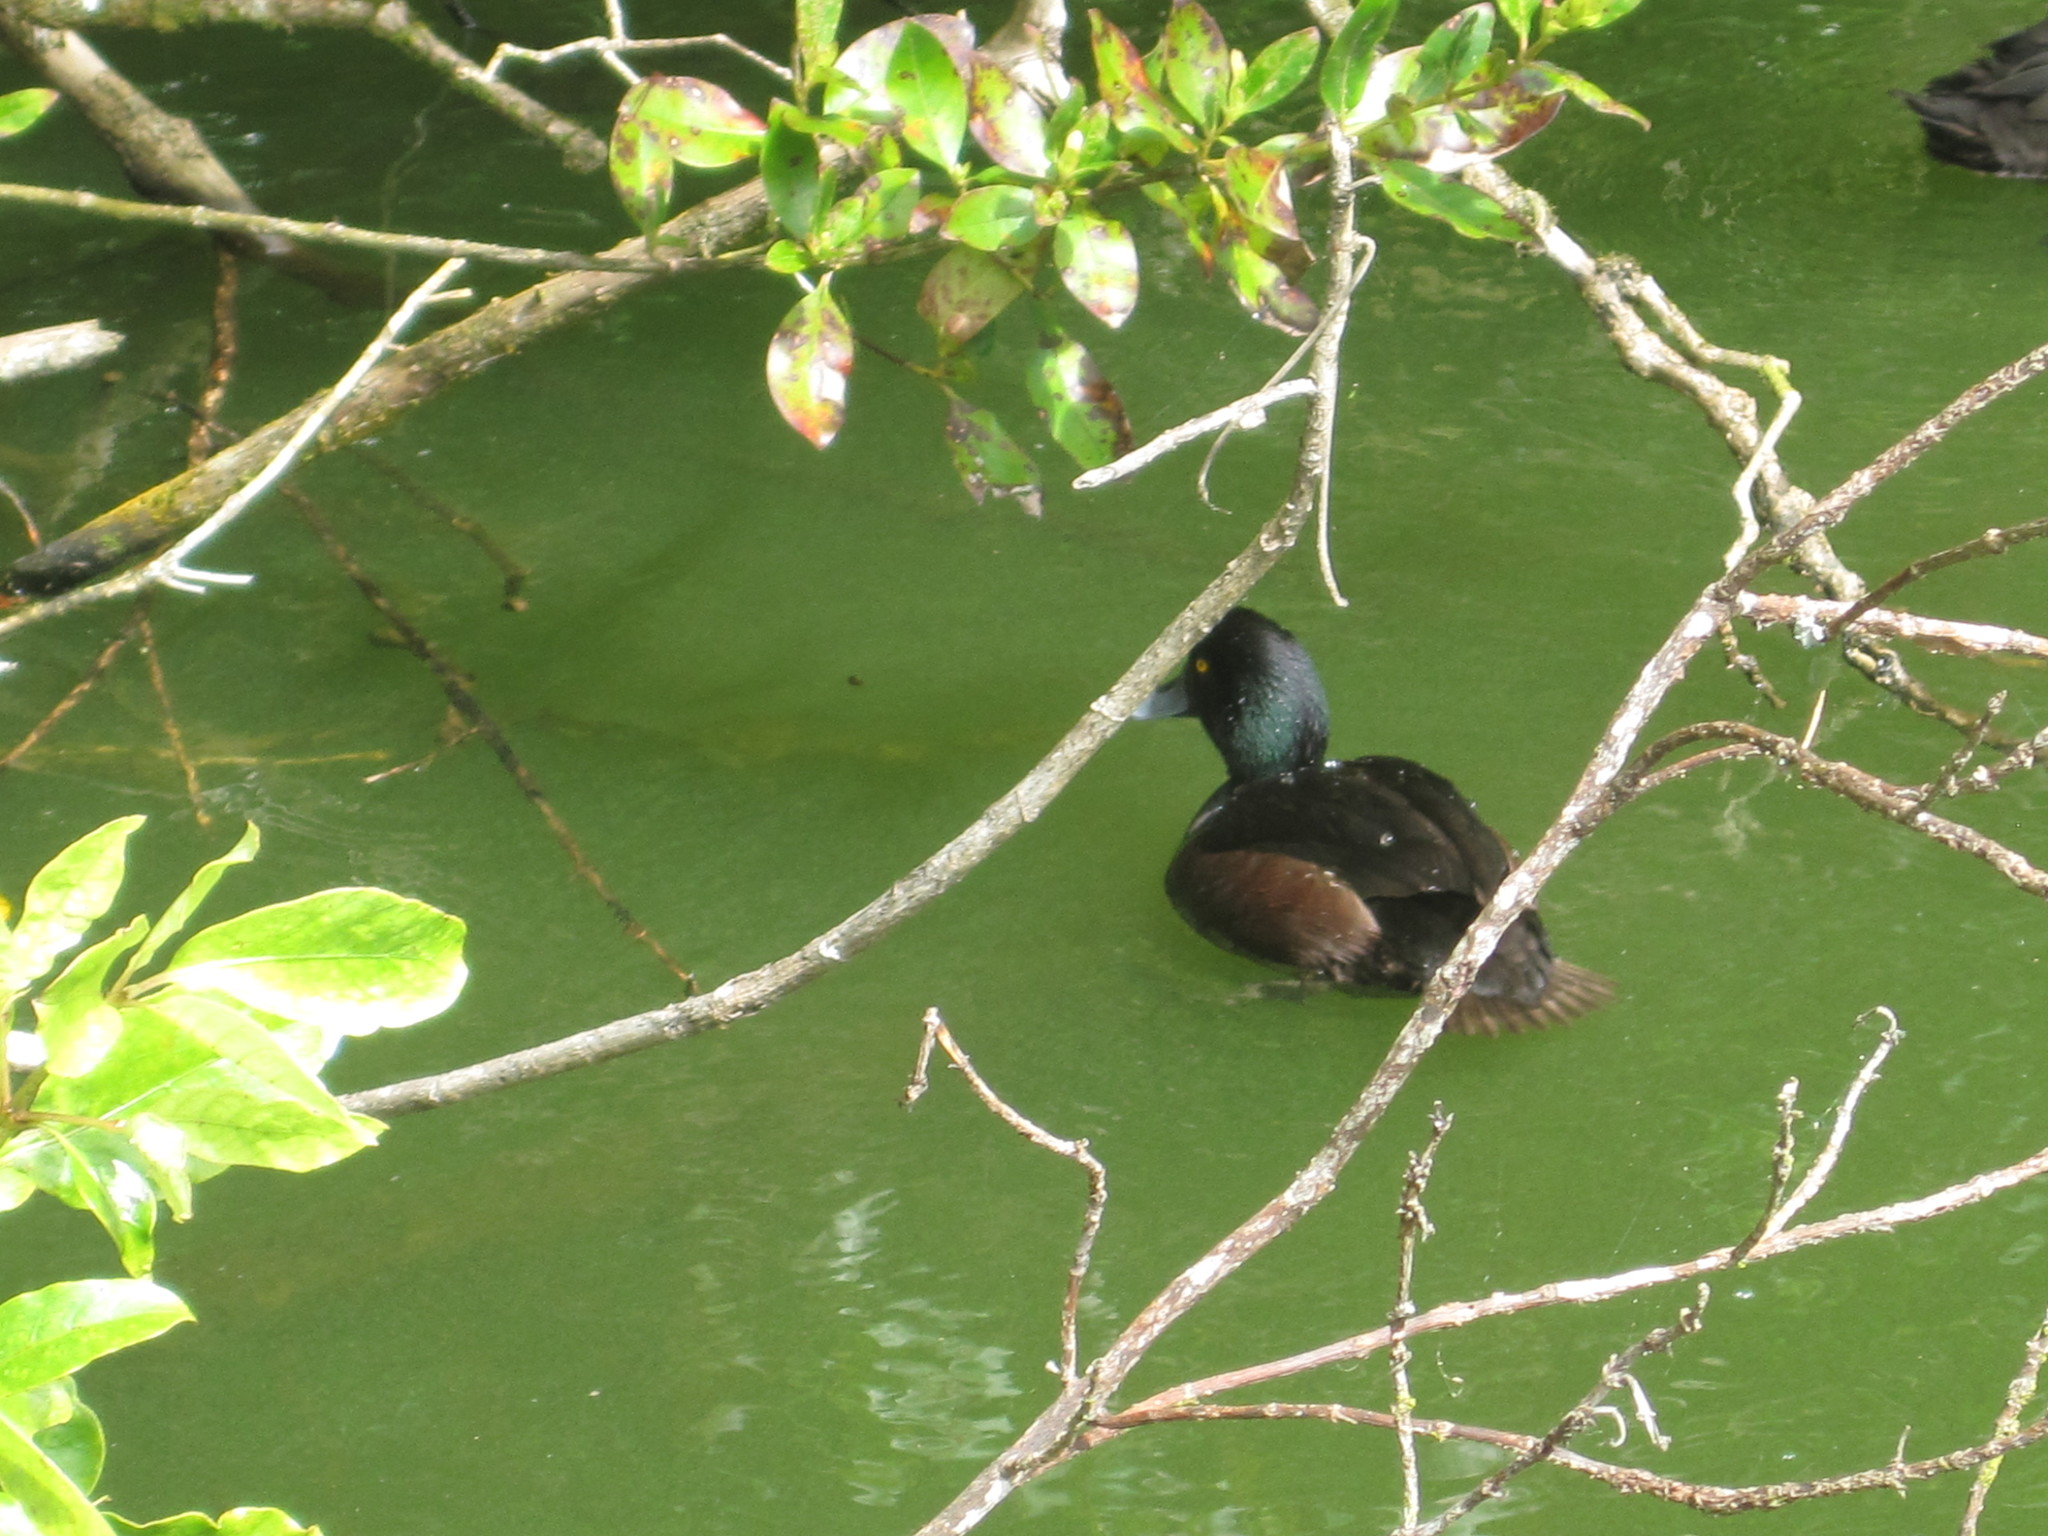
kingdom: Animalia
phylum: Chordata
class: Aves
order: Anseriformes
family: Anatidae
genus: Aythya
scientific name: Aythya novaeseelandiae
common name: New zealand scaup
